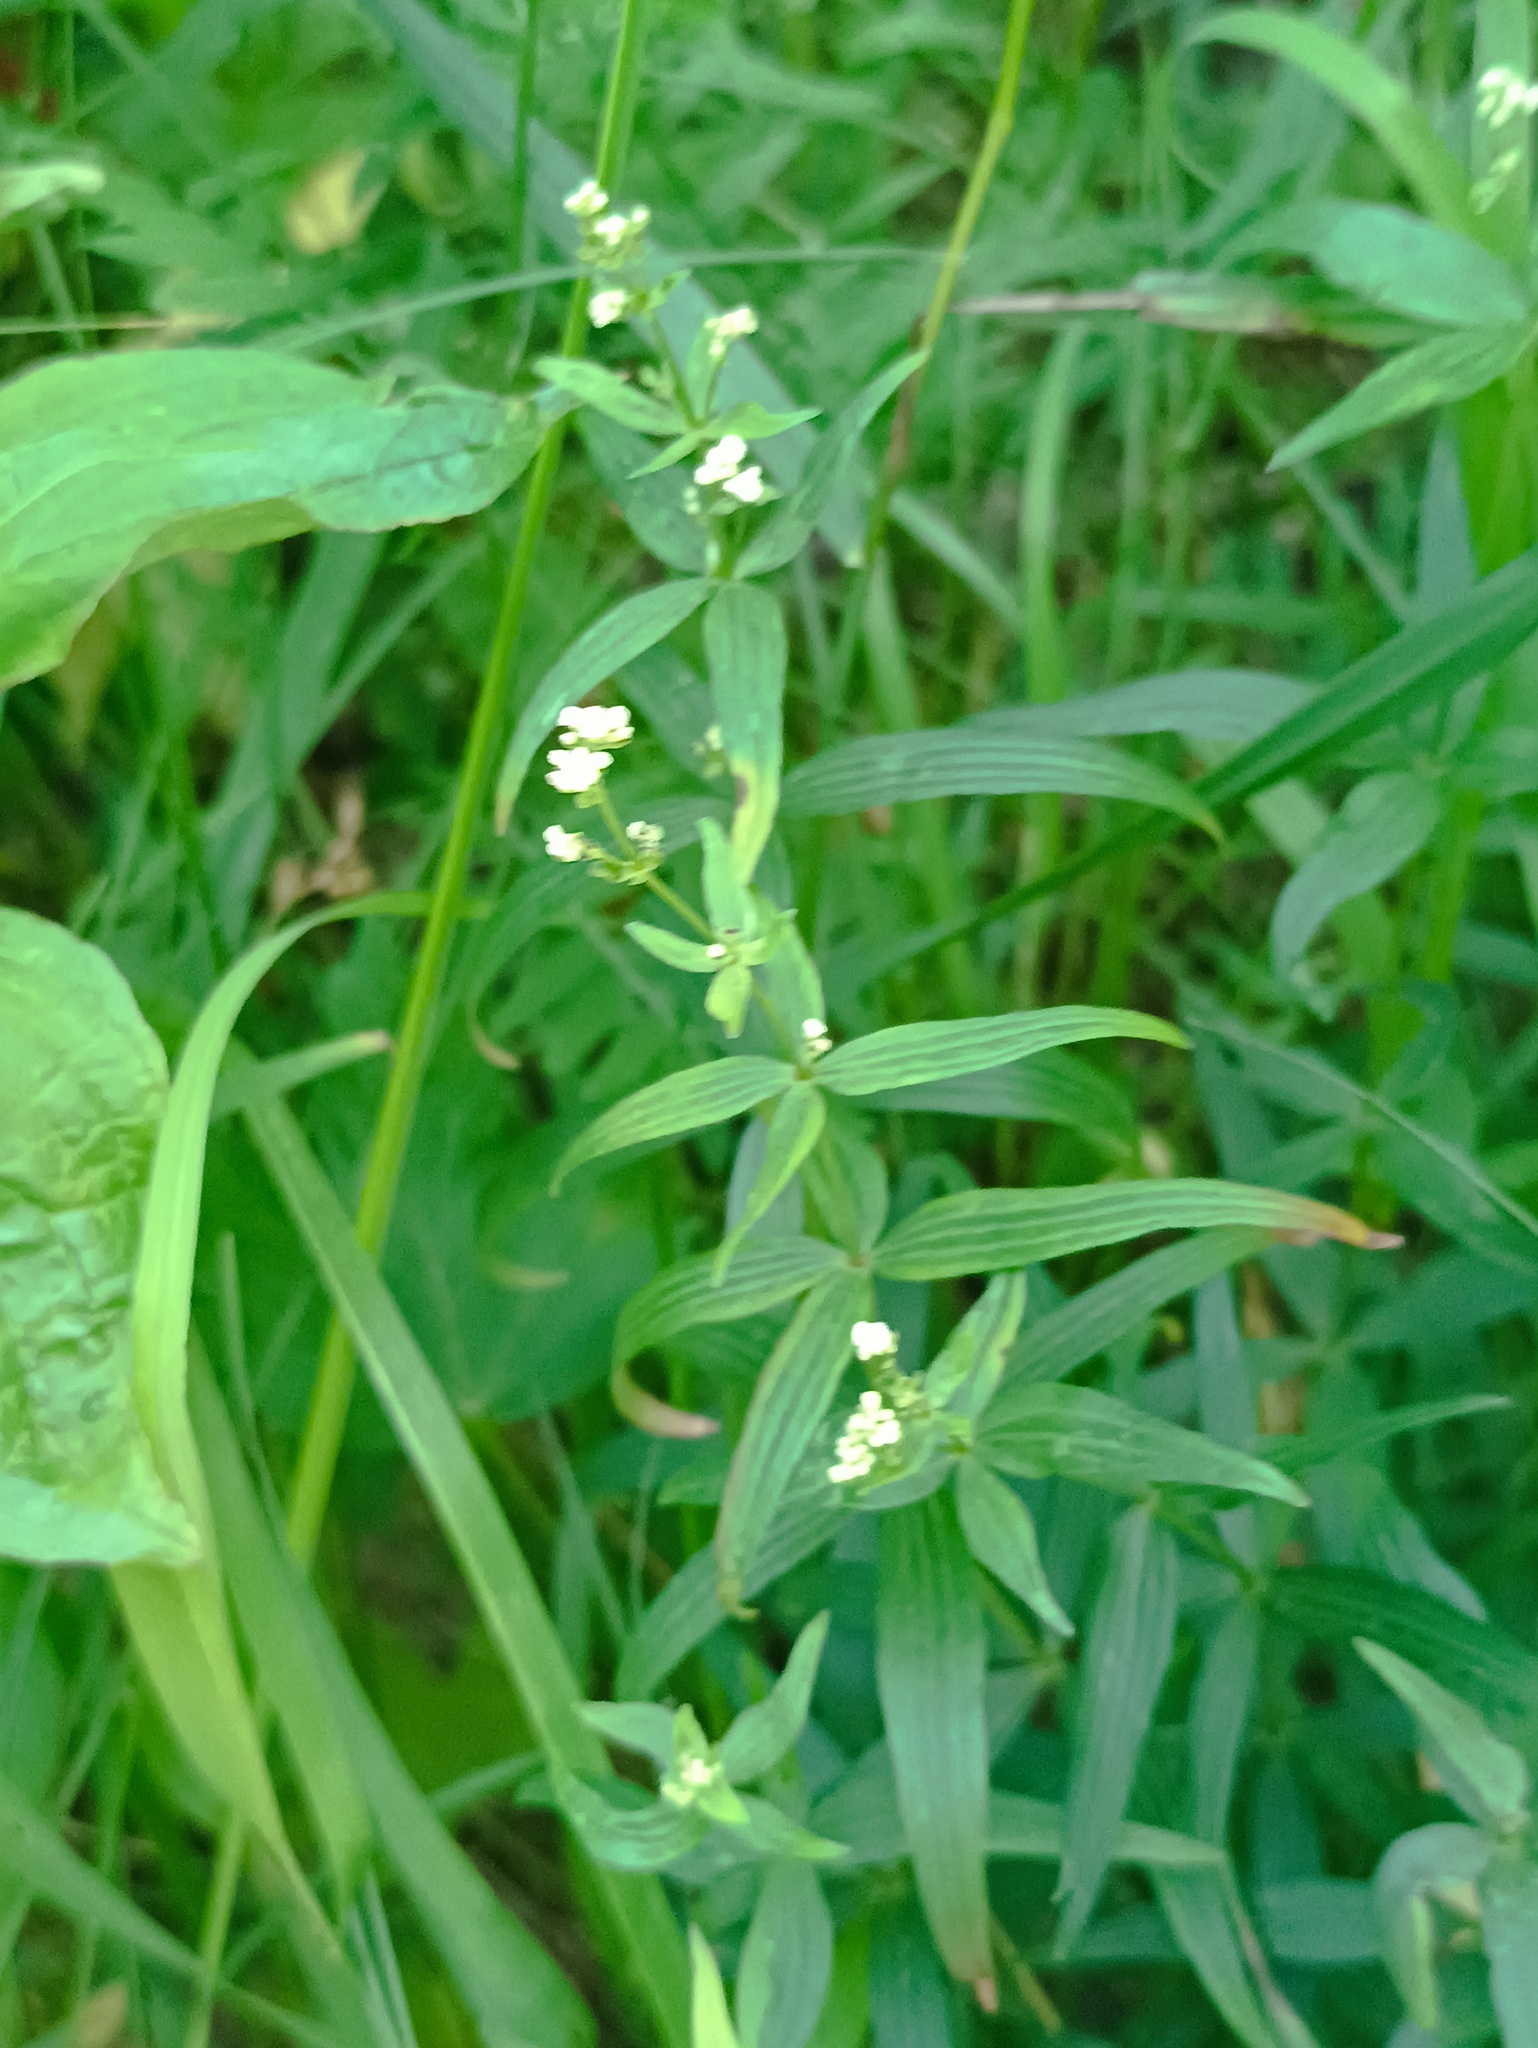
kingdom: Plantae
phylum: Tracheophyta
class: Magnoliopsida
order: Gentianales
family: Rubiaceae
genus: Galium
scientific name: Galium rubioides
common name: European bedstraw
